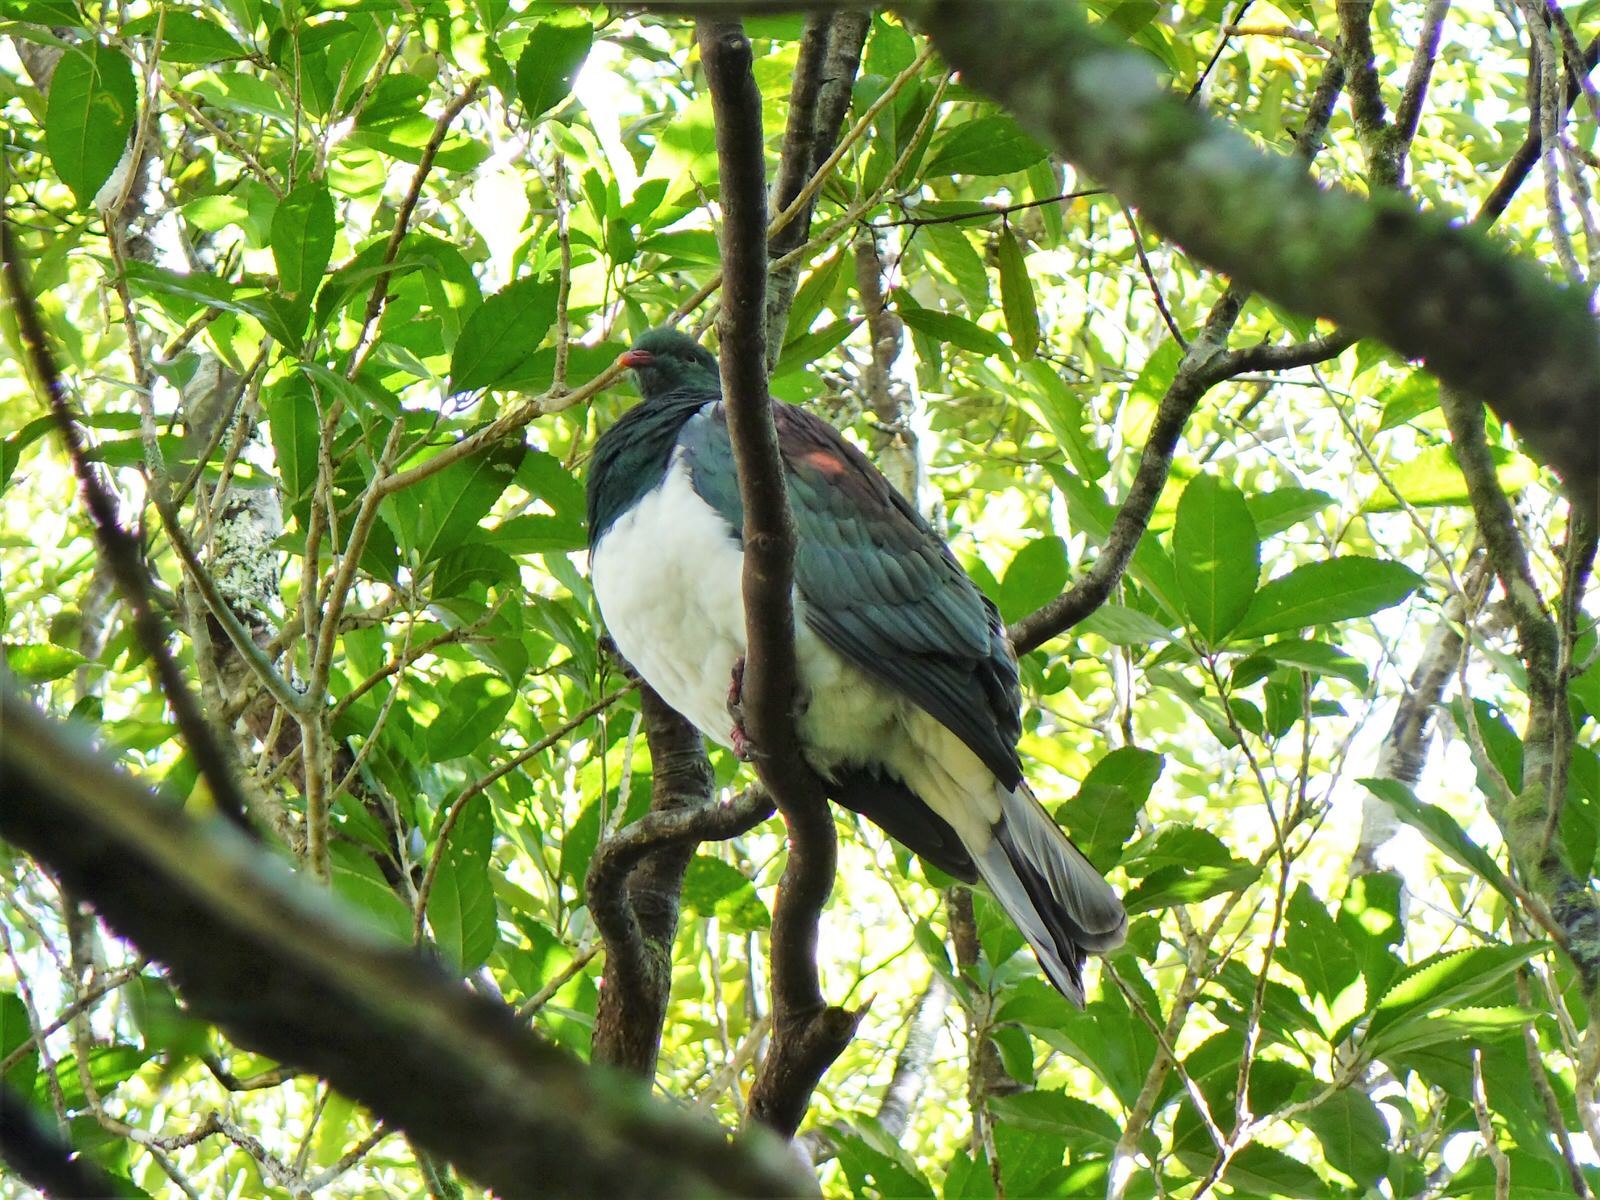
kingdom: Animalia
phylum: Chordata
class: Aves
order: Columbiformes
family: Columbidae
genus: Hemiphaga
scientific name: Hemiphaga novaeseelandiae
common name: New zealand pigeon
